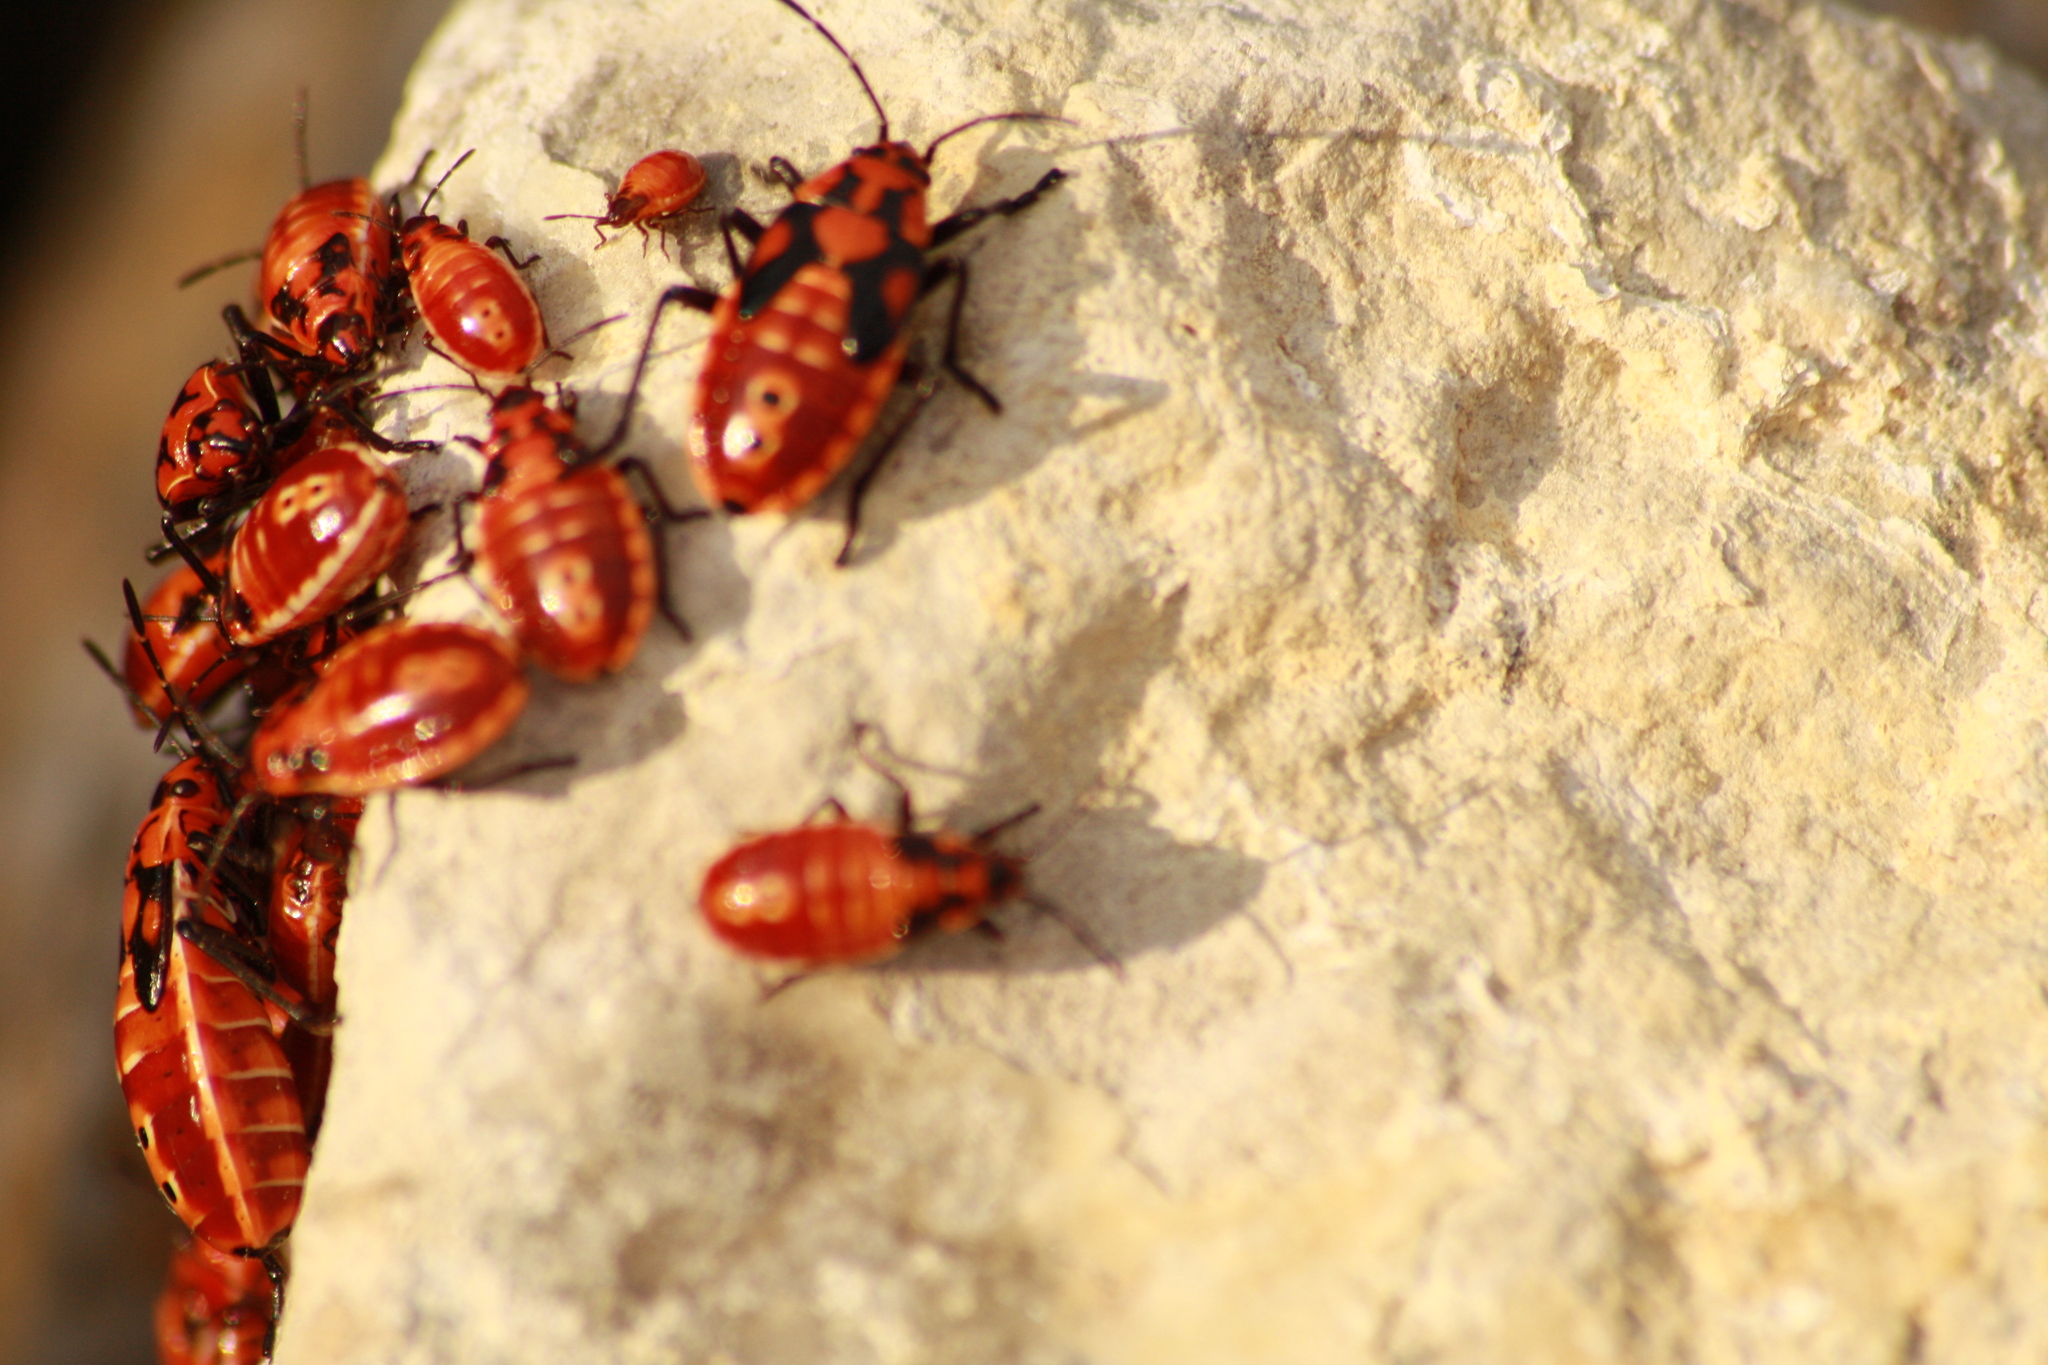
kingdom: Animalia
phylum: Arthropoda
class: Insecta
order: Hemiptera
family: Lygaeidae
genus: Spilostethus
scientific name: Spilostethus pandurus
